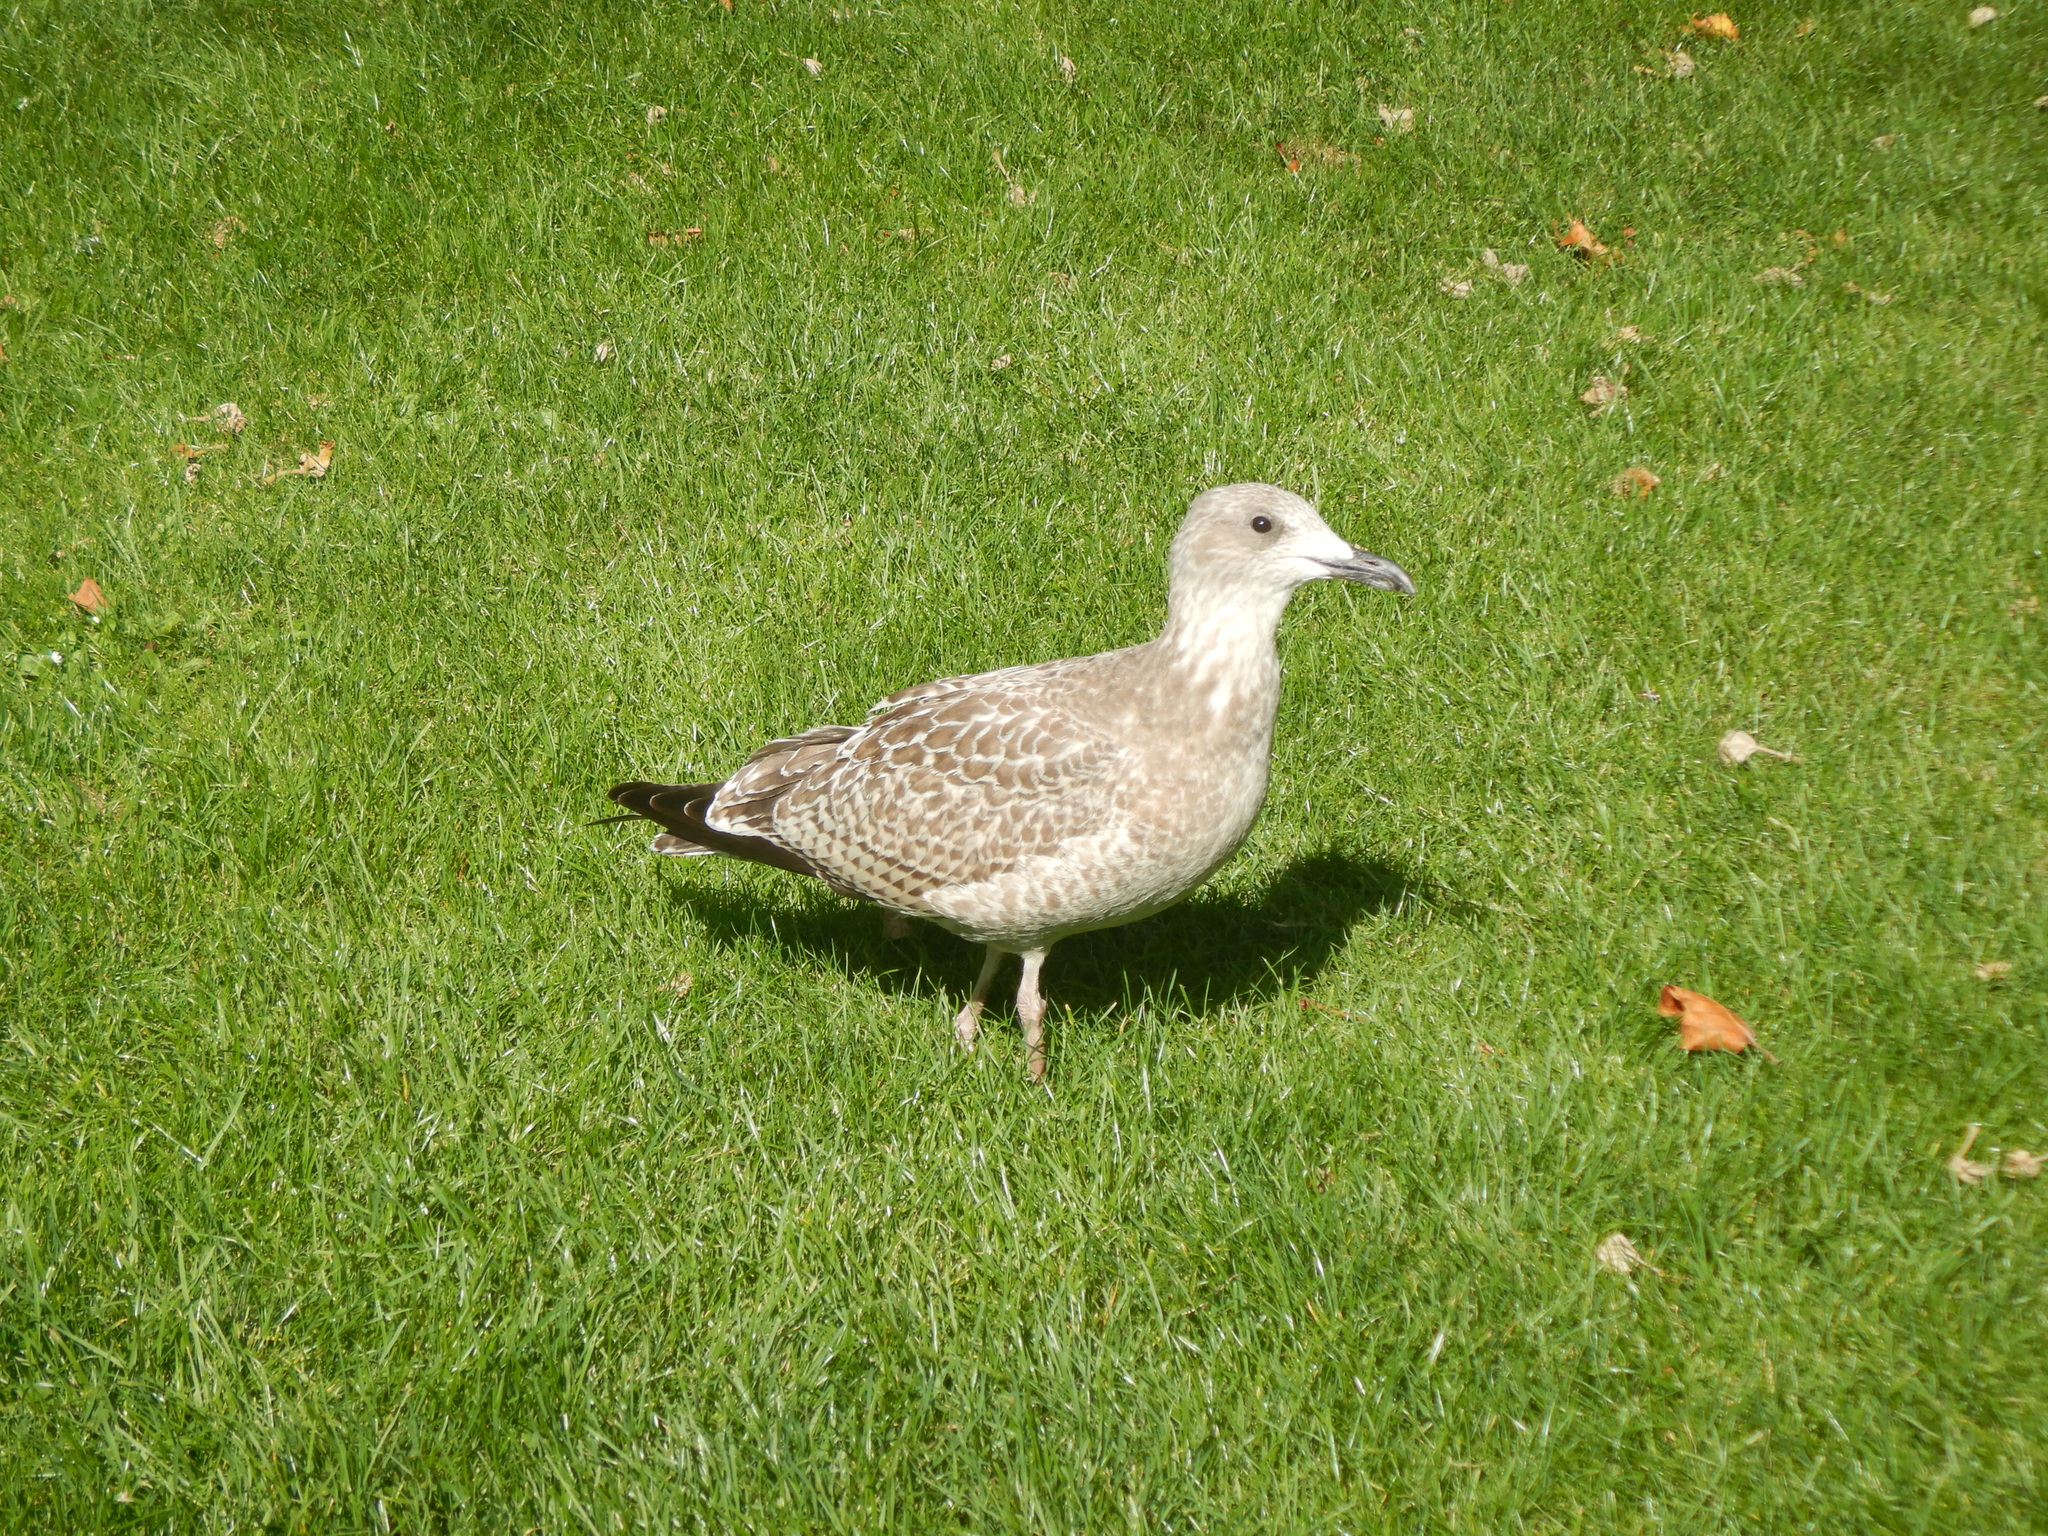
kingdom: Animalia
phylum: Chordata
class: Aves
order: Charadriiformes
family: Laridae
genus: Larus
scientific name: Larus argentatus
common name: Herring gull
